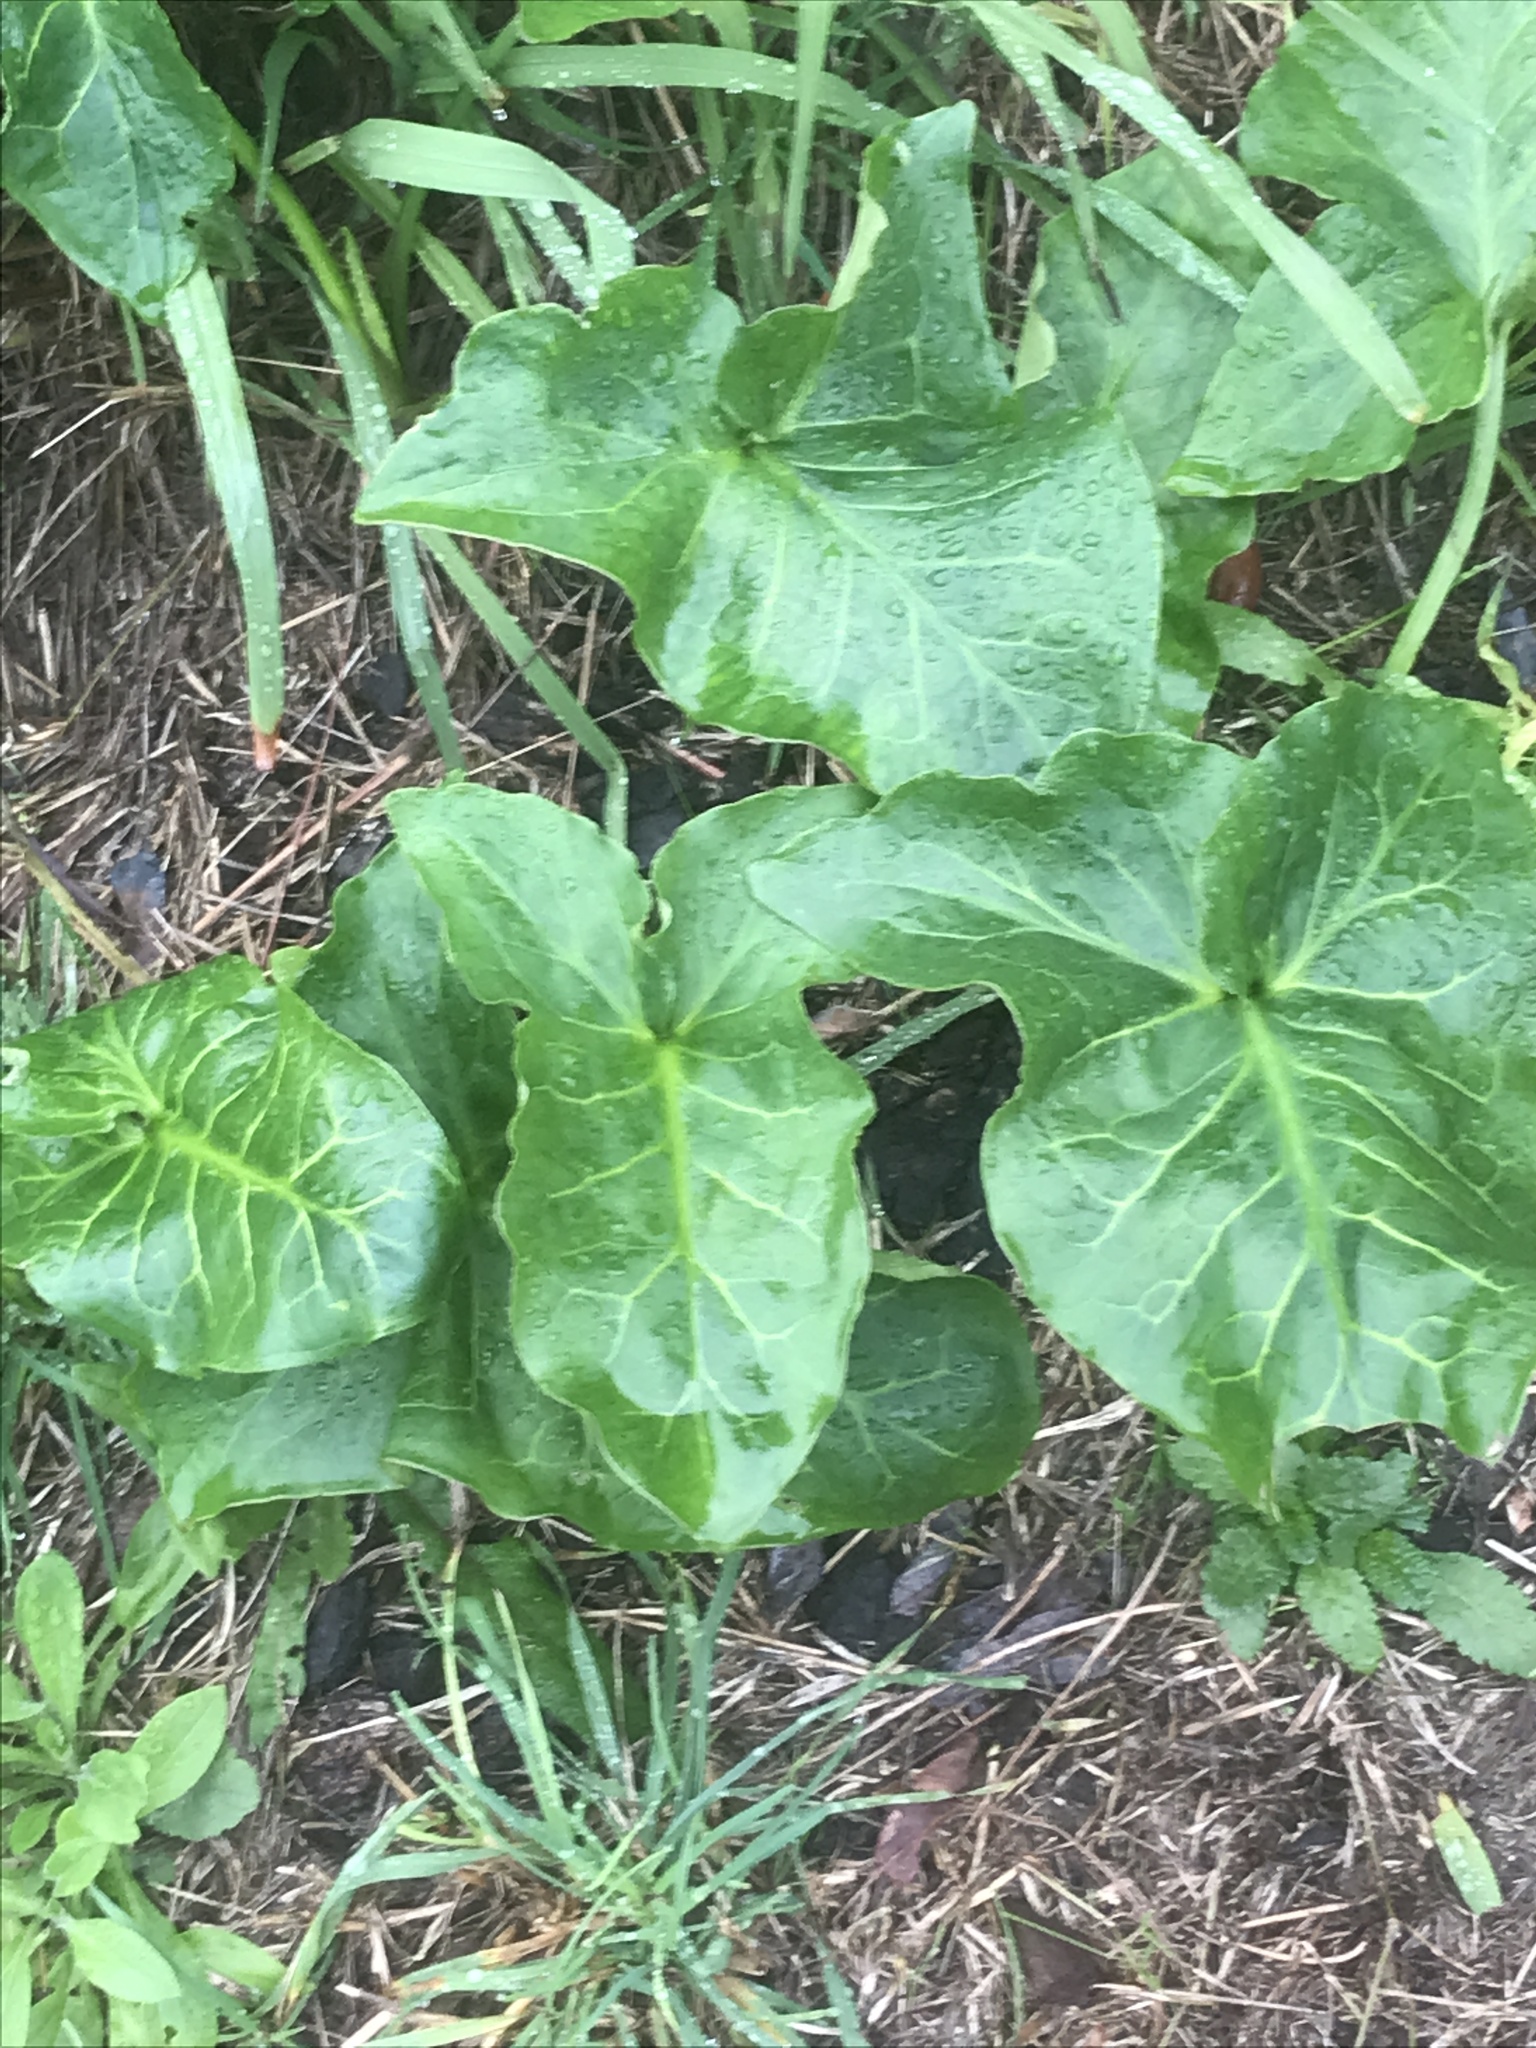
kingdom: Plantae
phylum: Tracheophyta
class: Liliopsida
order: Alismatales
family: Araceae
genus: Arum
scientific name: Arum italicum
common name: Italian lords-and-ladies
